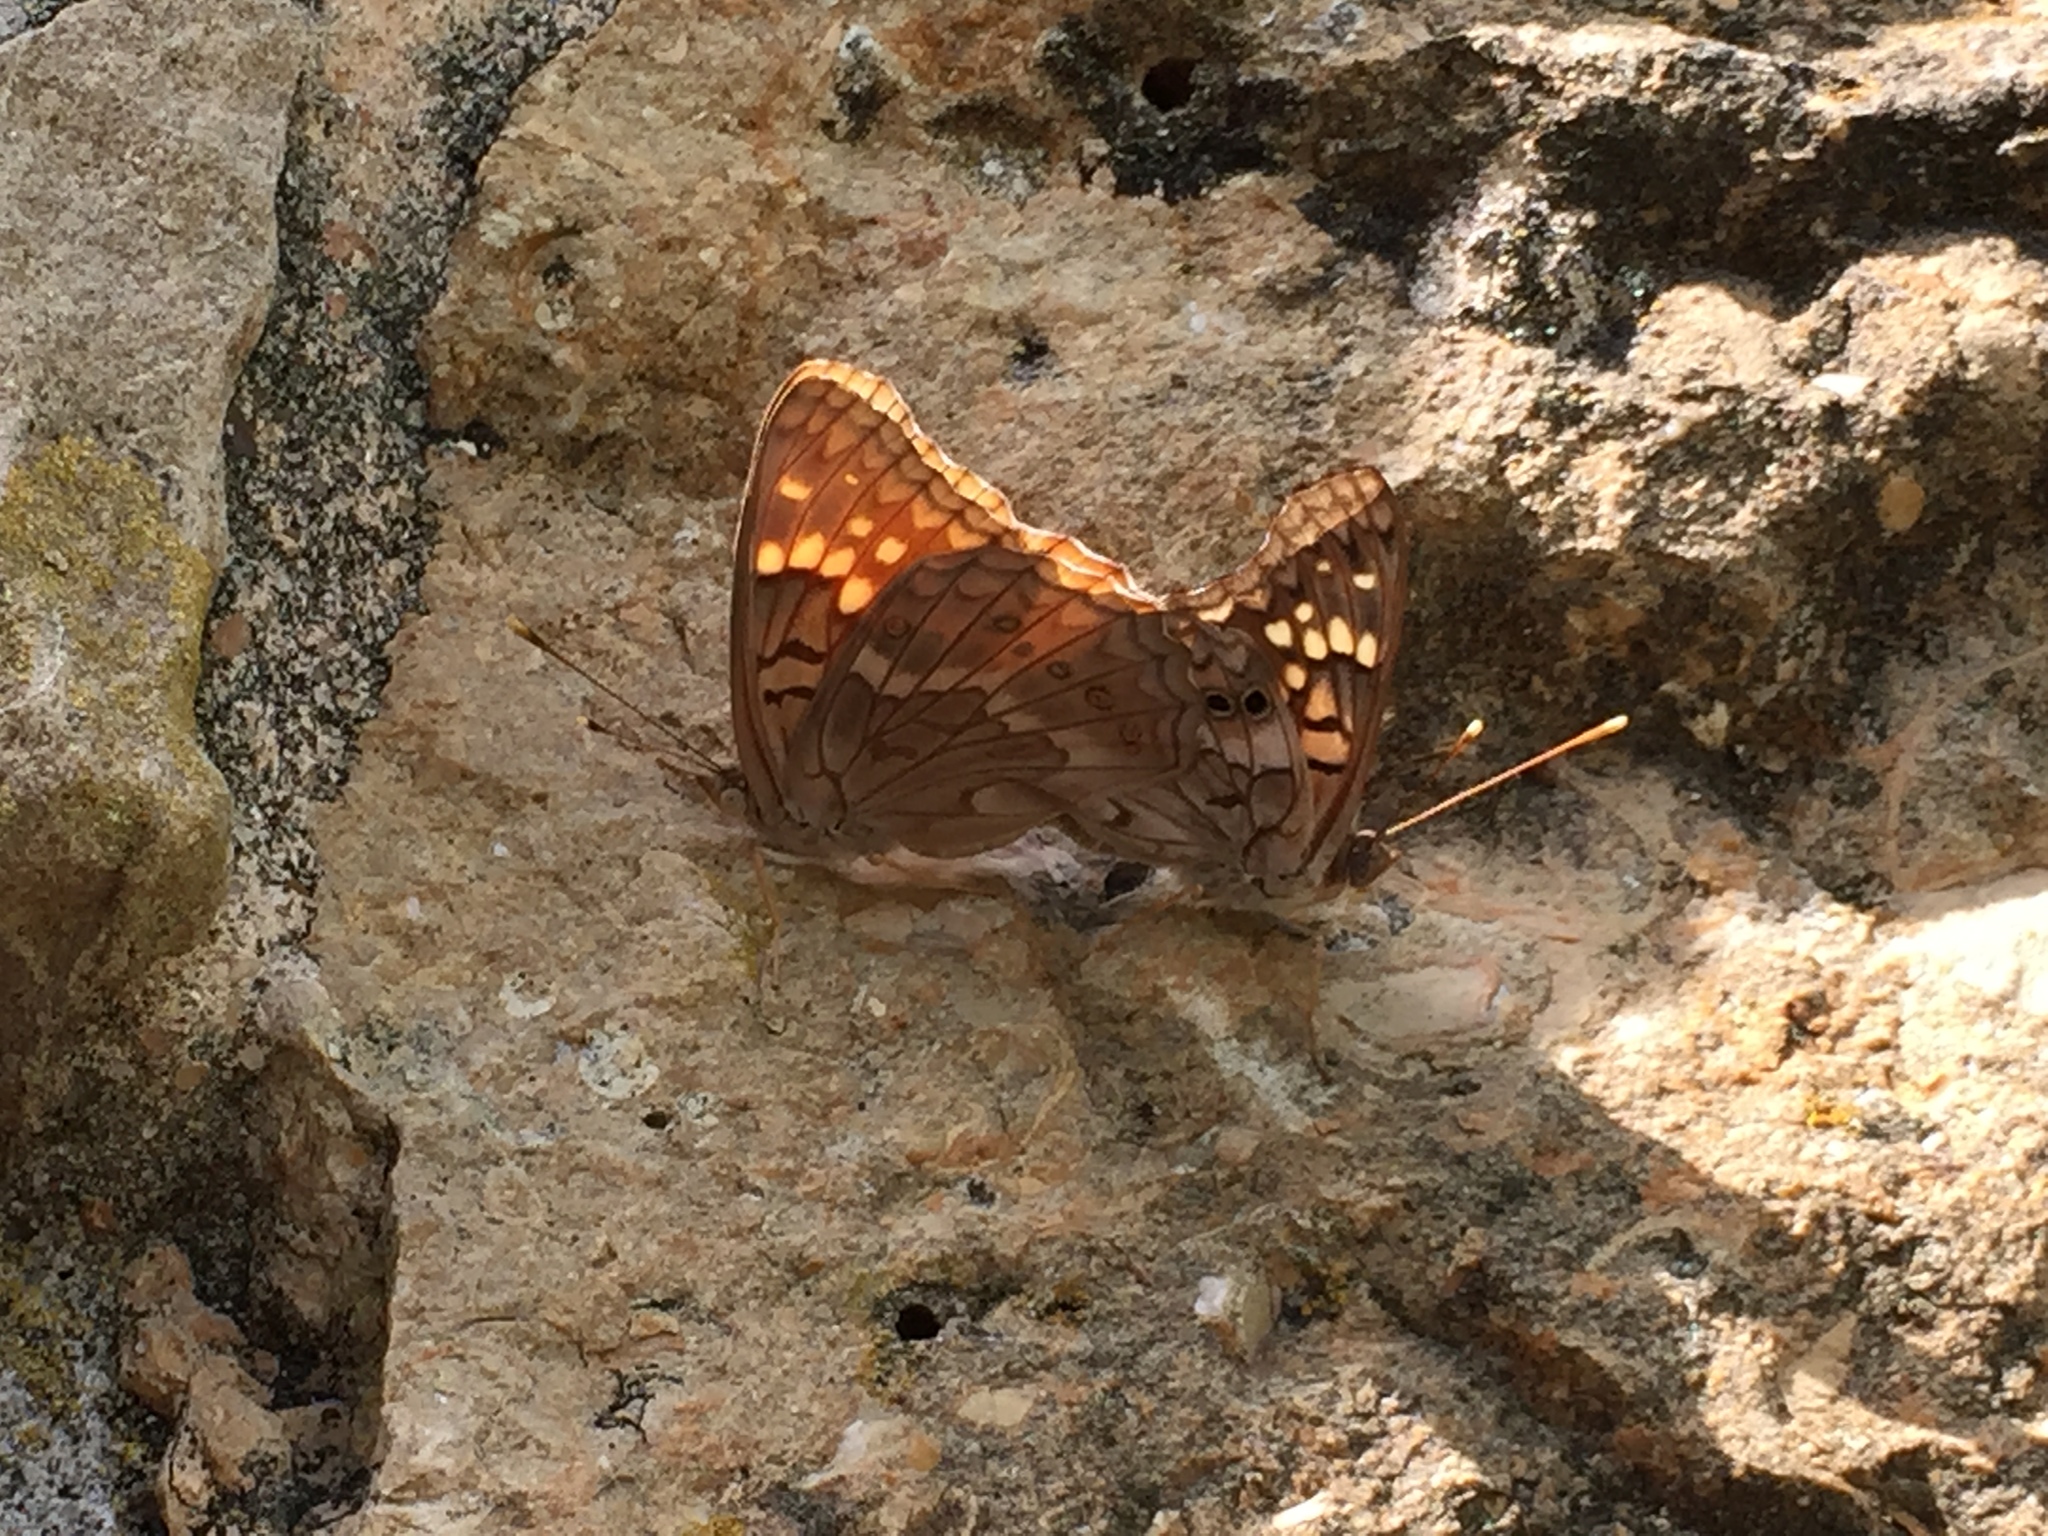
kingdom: Animalia
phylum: Arthropoda
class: Insecta
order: Lepidoptera
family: Nymphalidae
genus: Asterocampa
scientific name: Asterocampa clyton
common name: Tawny emperor
